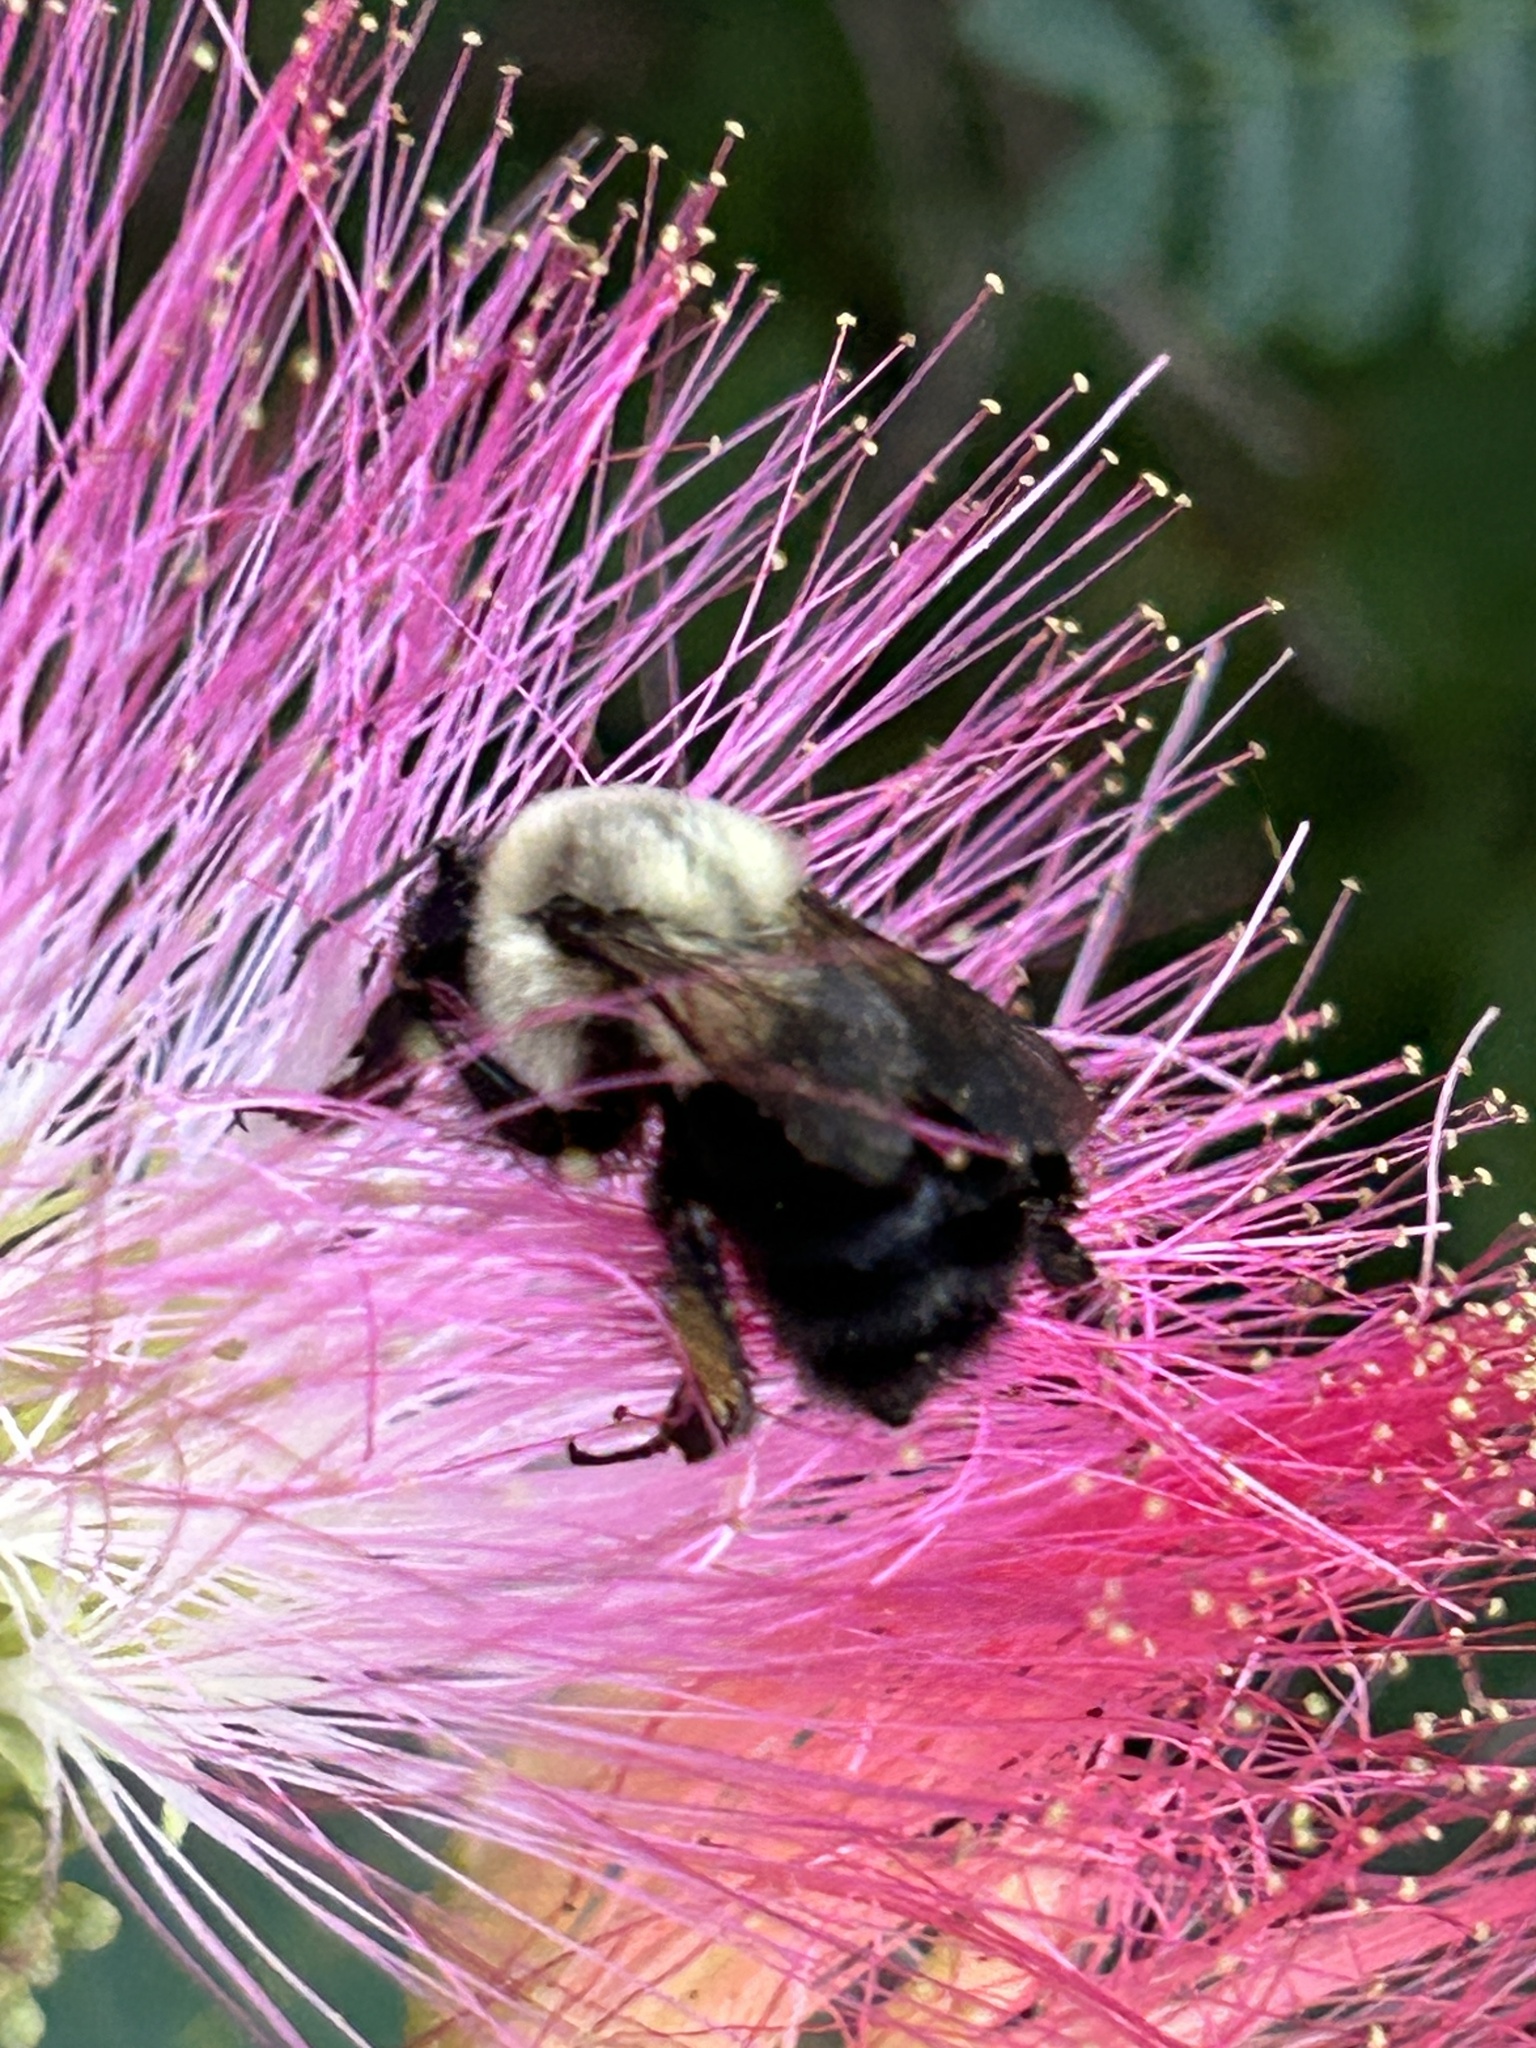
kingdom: Animalia
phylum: Arthropoda
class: Insecta
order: Hymenoptera
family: Apidae
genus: Bombus
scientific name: Bombus impatiens
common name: Common eastern bumble bee
